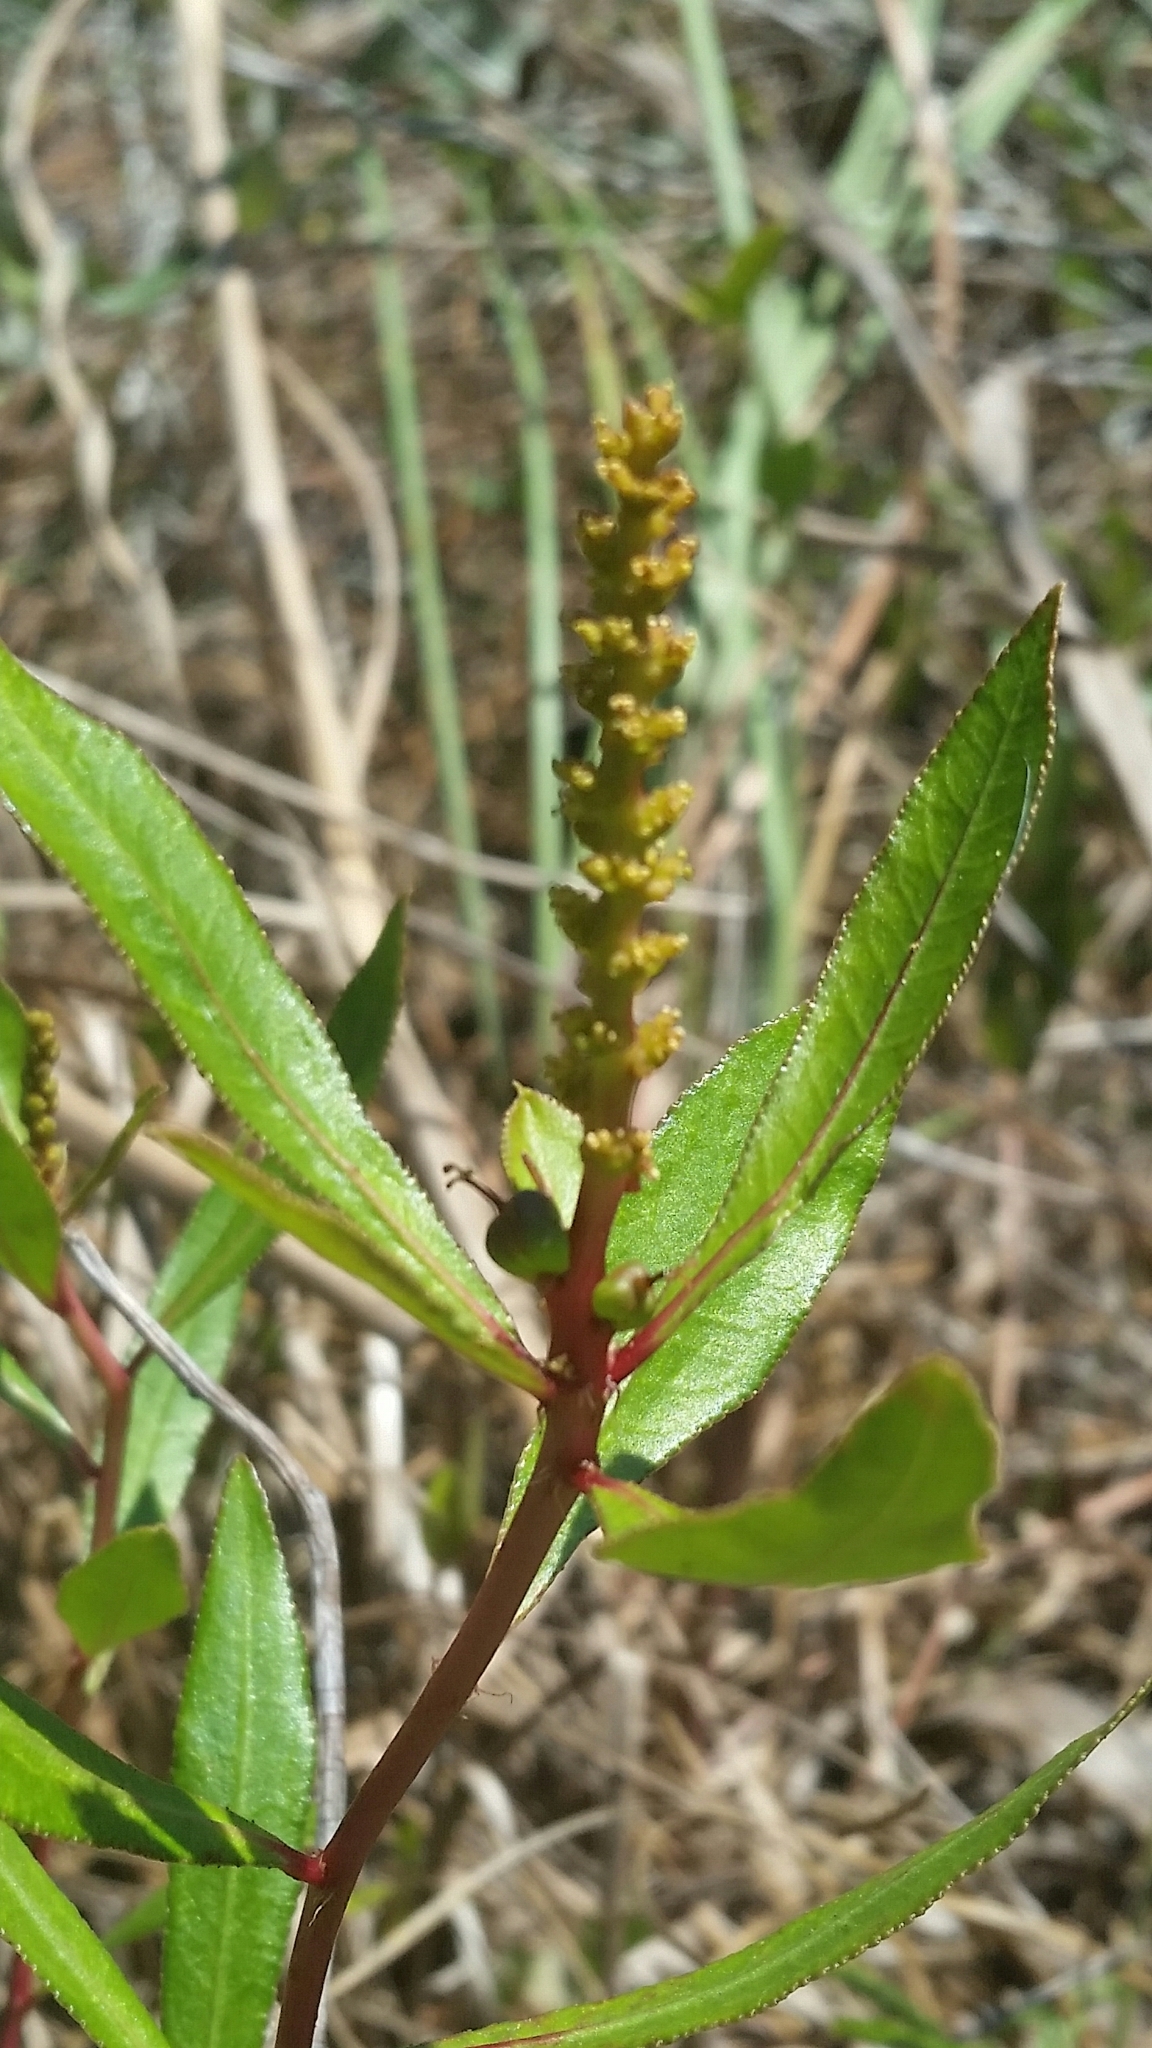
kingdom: Plantae
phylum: Tracheophyta
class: Magnoliopsida
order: Malpighiales
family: Euphorbiaceae
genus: Stillingia
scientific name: Stillingia sylvatica
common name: Queen's-delight
